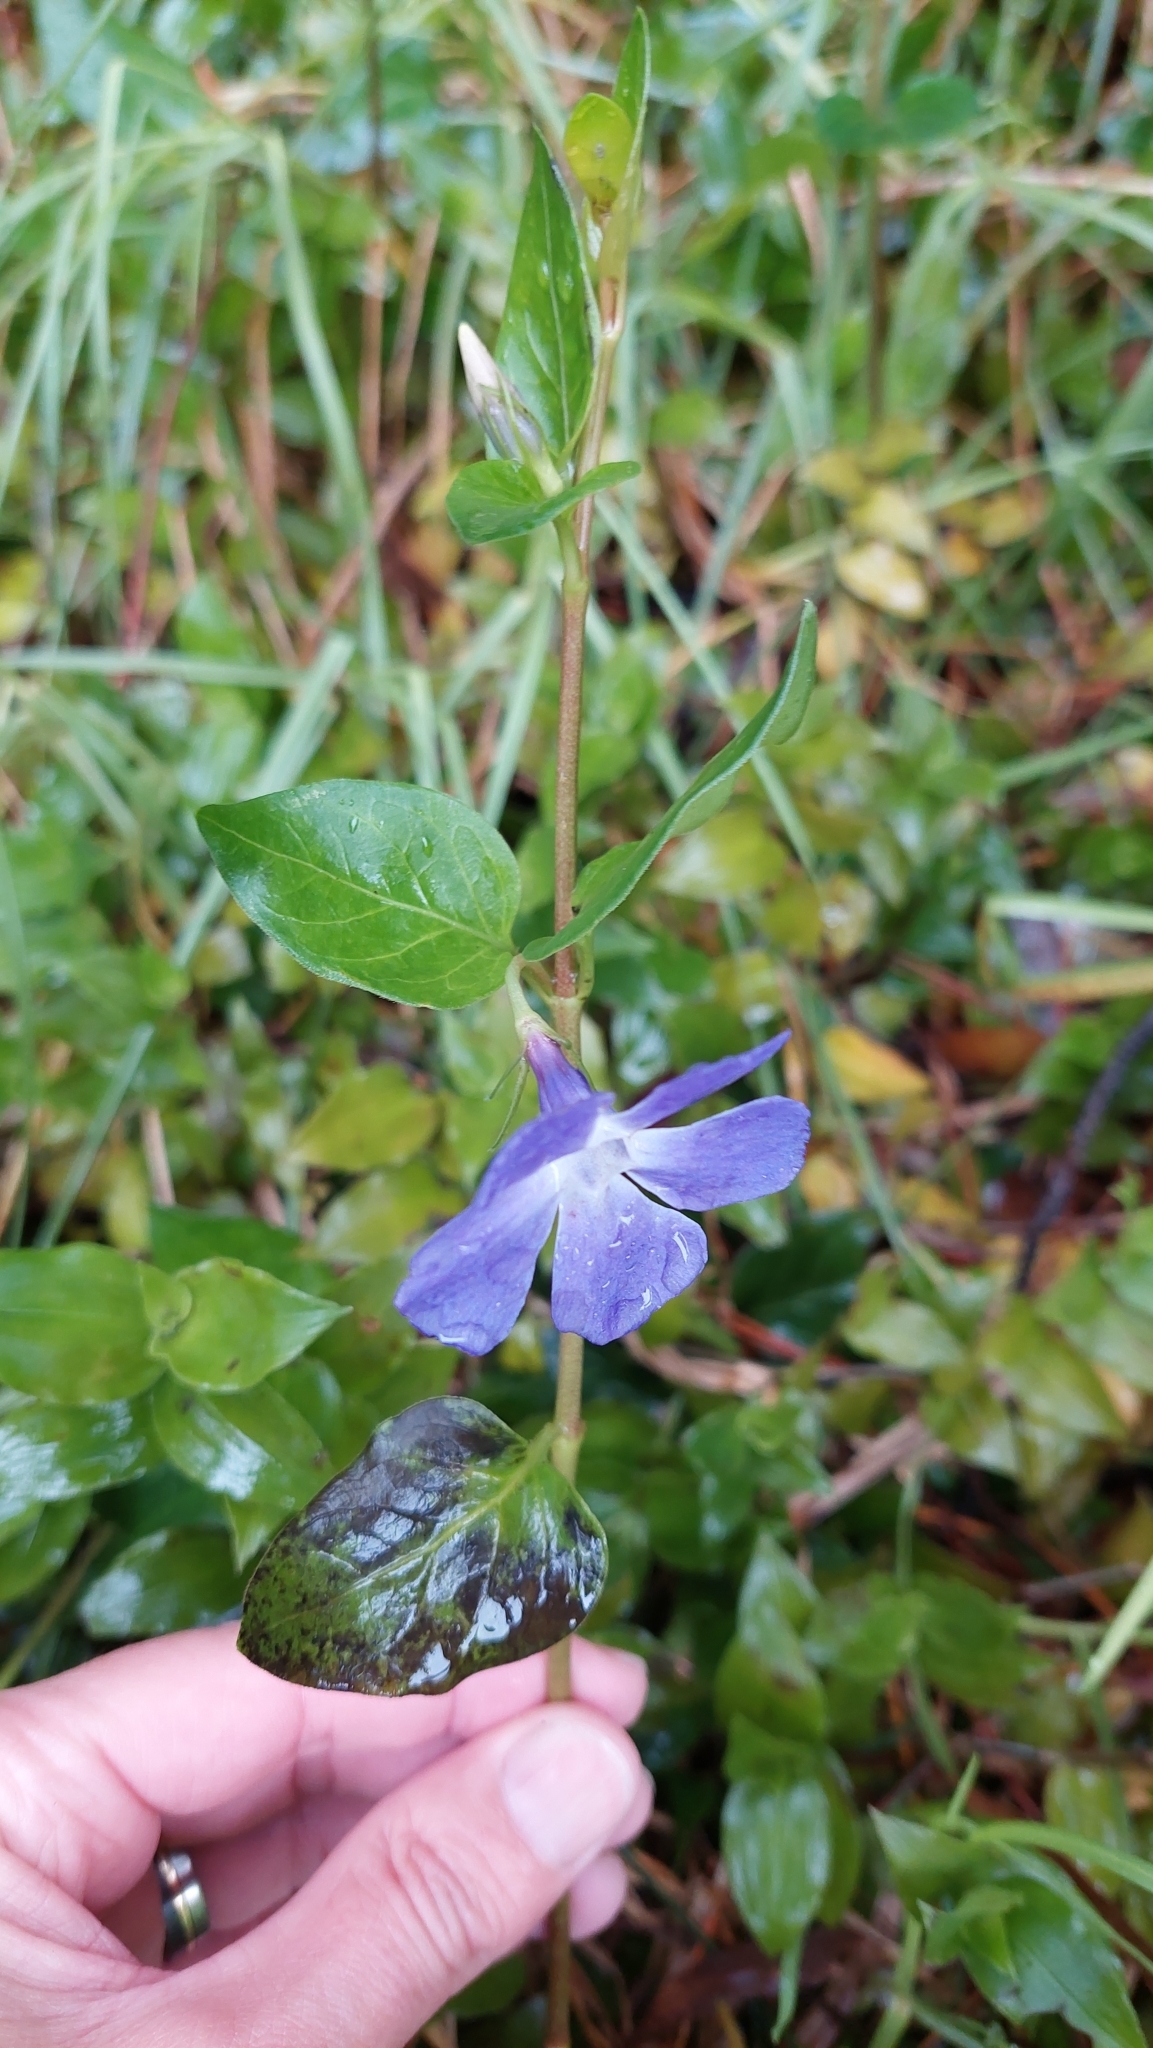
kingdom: Plantae
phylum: Tracheophyta
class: Magnoliopsida
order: Gentianales
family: Apocynaceae
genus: Vinca
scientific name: Vinca major
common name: Greater periwinkle
